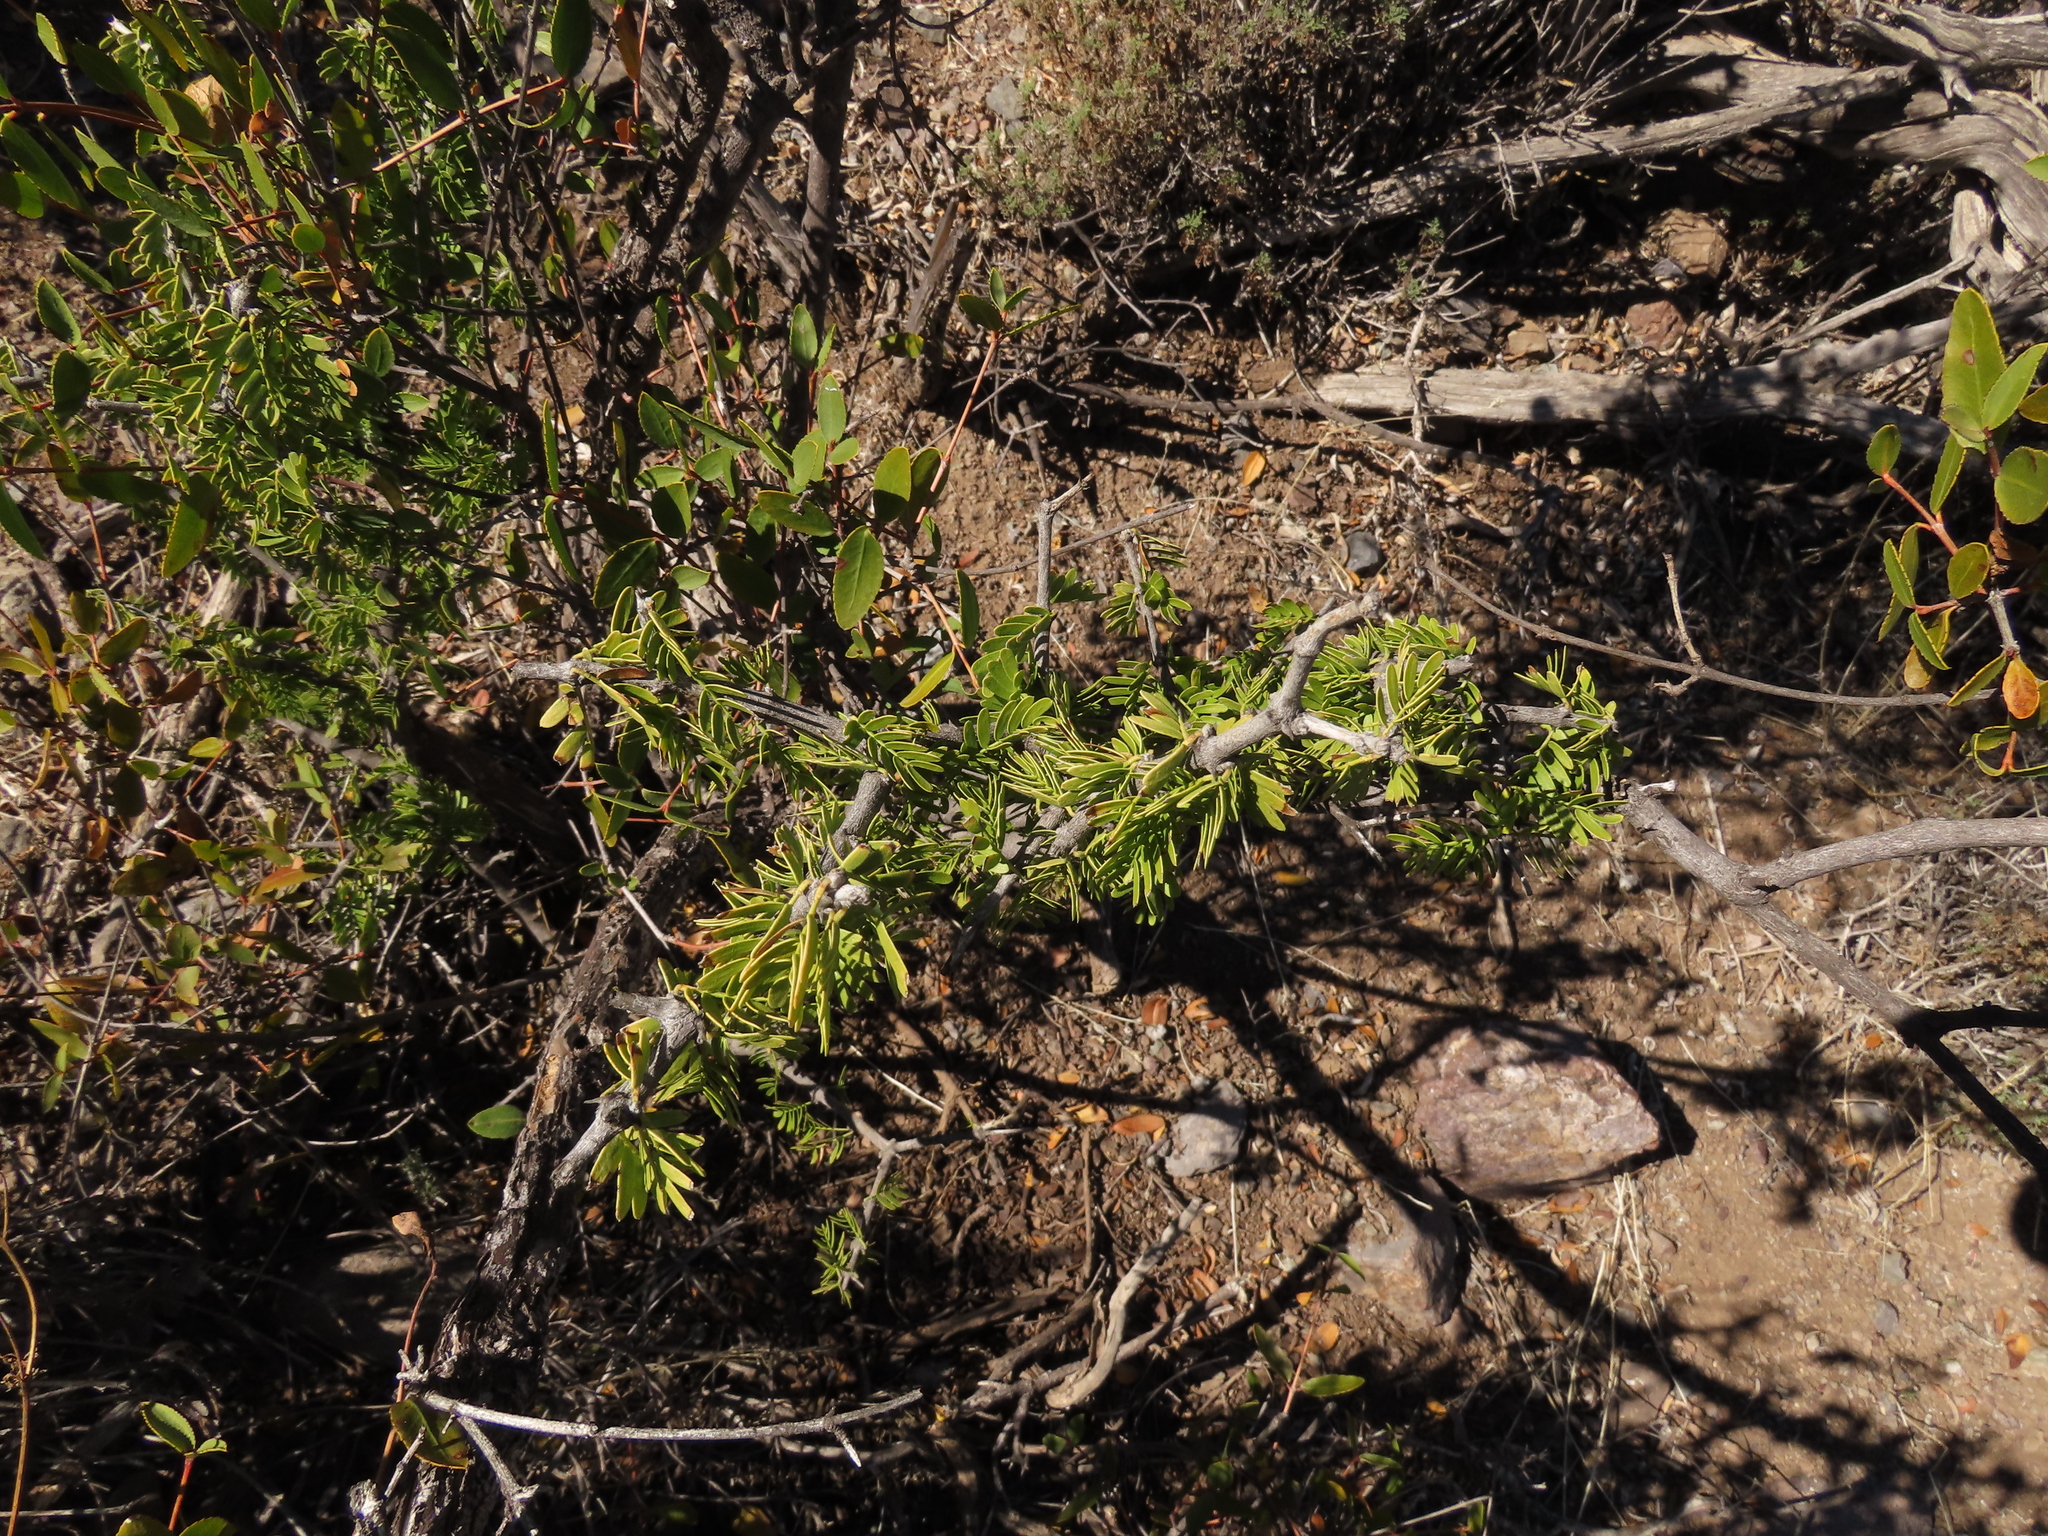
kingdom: Plantae
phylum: Tracheophyta
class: Magnoliopsida
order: Zygophyllales
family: Zygophyllaceae
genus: Porlieria
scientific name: Porlieria chilensis
